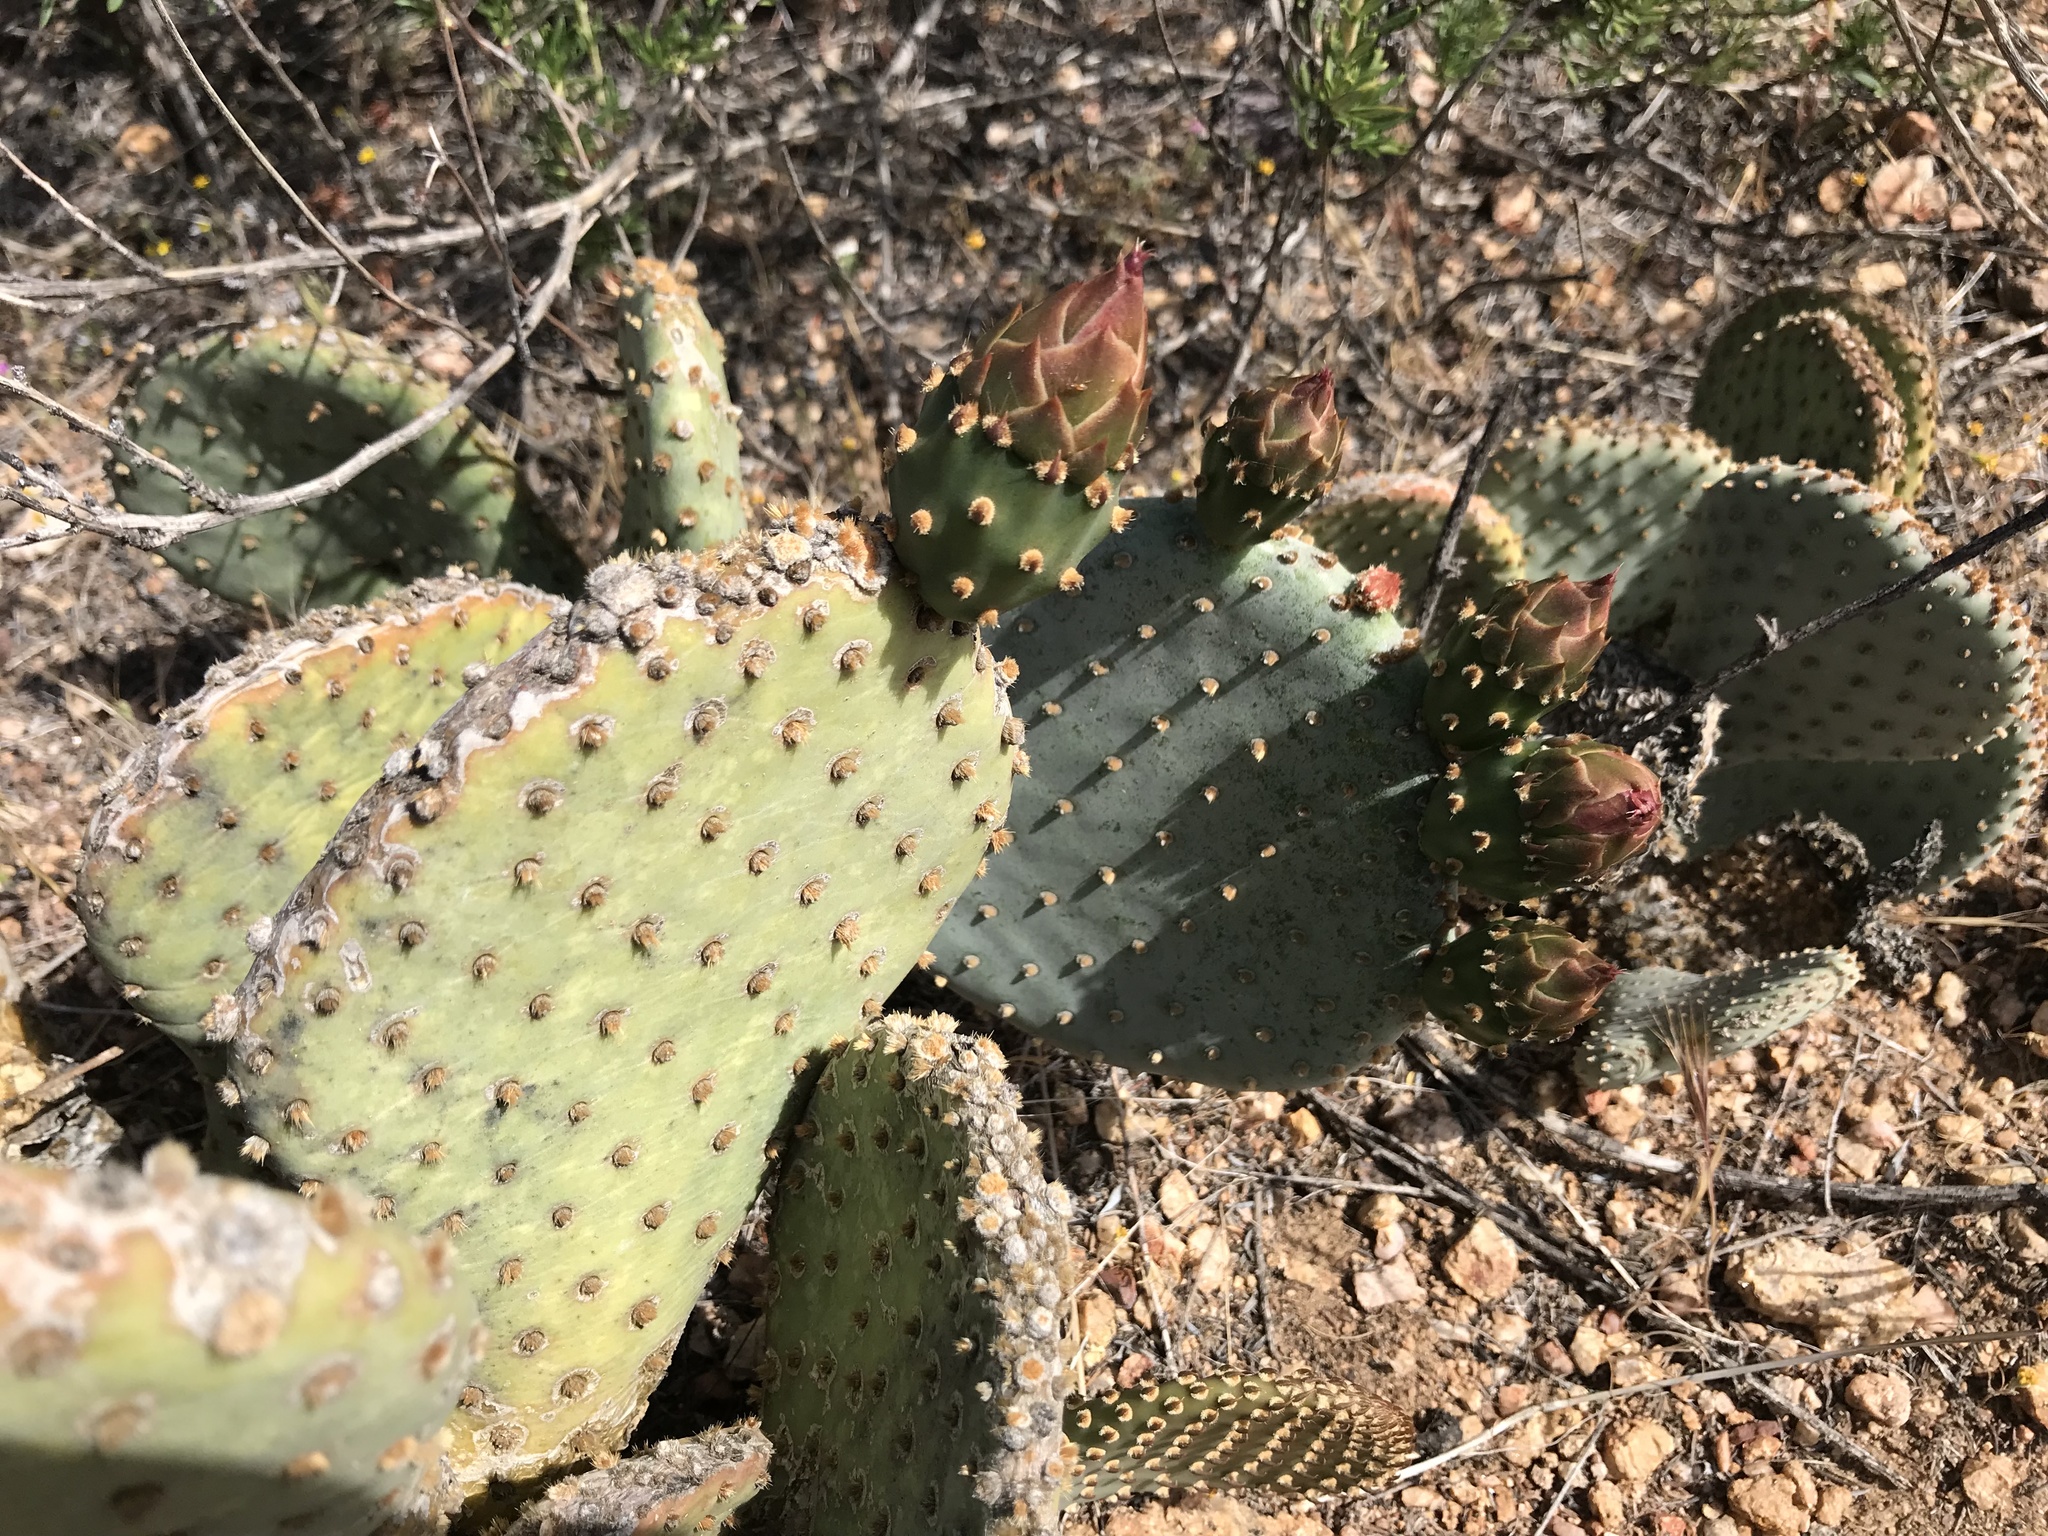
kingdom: Plantae
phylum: Tracheophyta
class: Magnoliopsida
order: Caryophyllales
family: Cactaceae
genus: Opuntia
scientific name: Opuntia basilaris
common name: Beavertail prickly-pear
